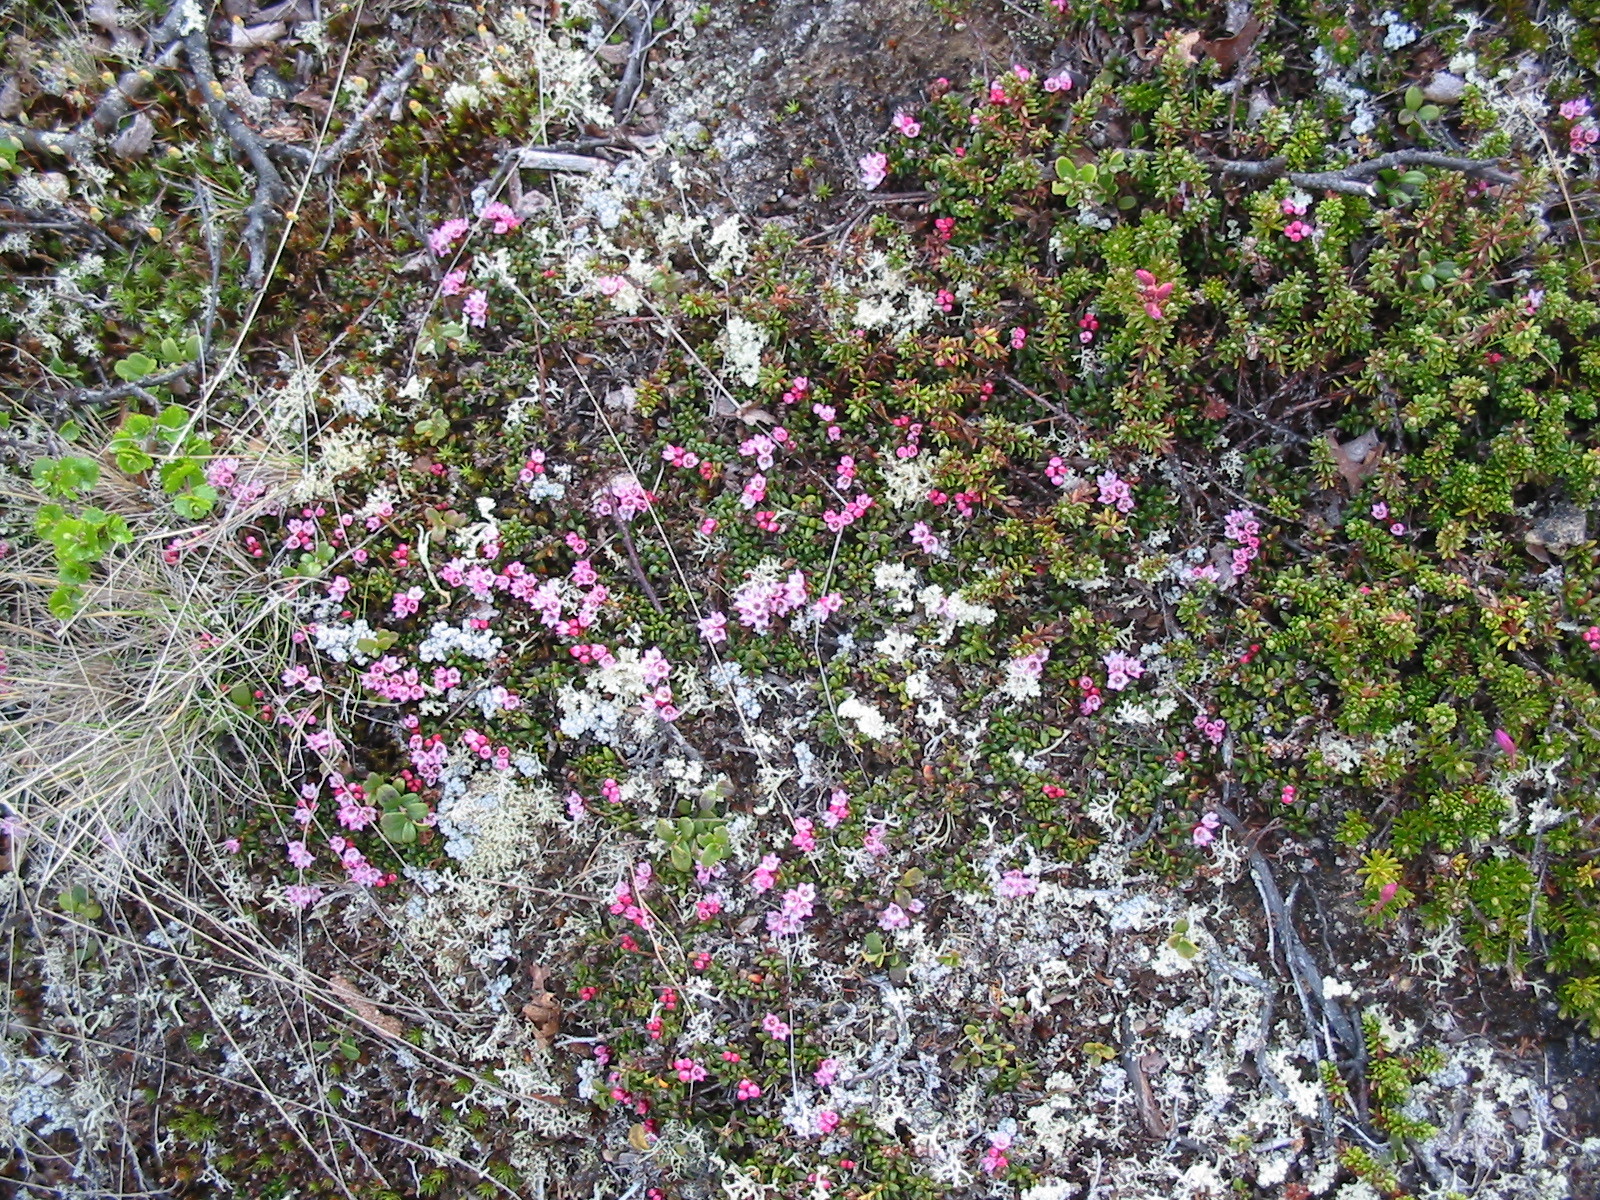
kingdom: Plantae
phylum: Tracheophyta
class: Magnoliopsida
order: Ericales
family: Ericaceae
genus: Kalmia
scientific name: Kalmia procumbens
